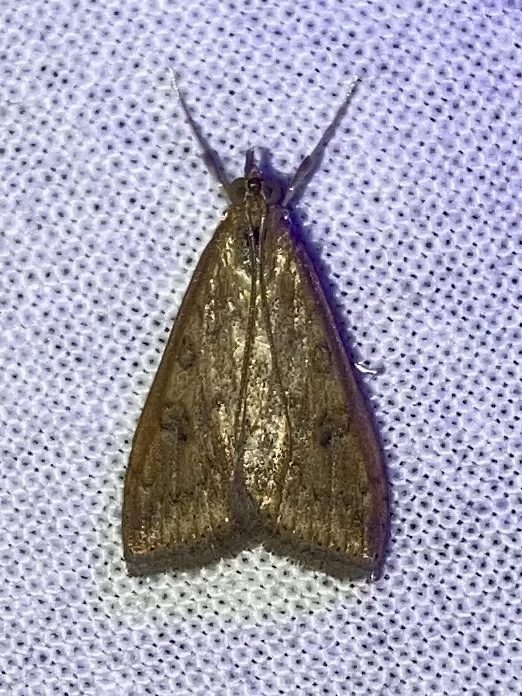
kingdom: Animalia
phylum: Arthropoda
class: Insecta
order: Lepidoptera
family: Crambidae
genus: Udea
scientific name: Udea ferrugalis
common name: Rusty dot
